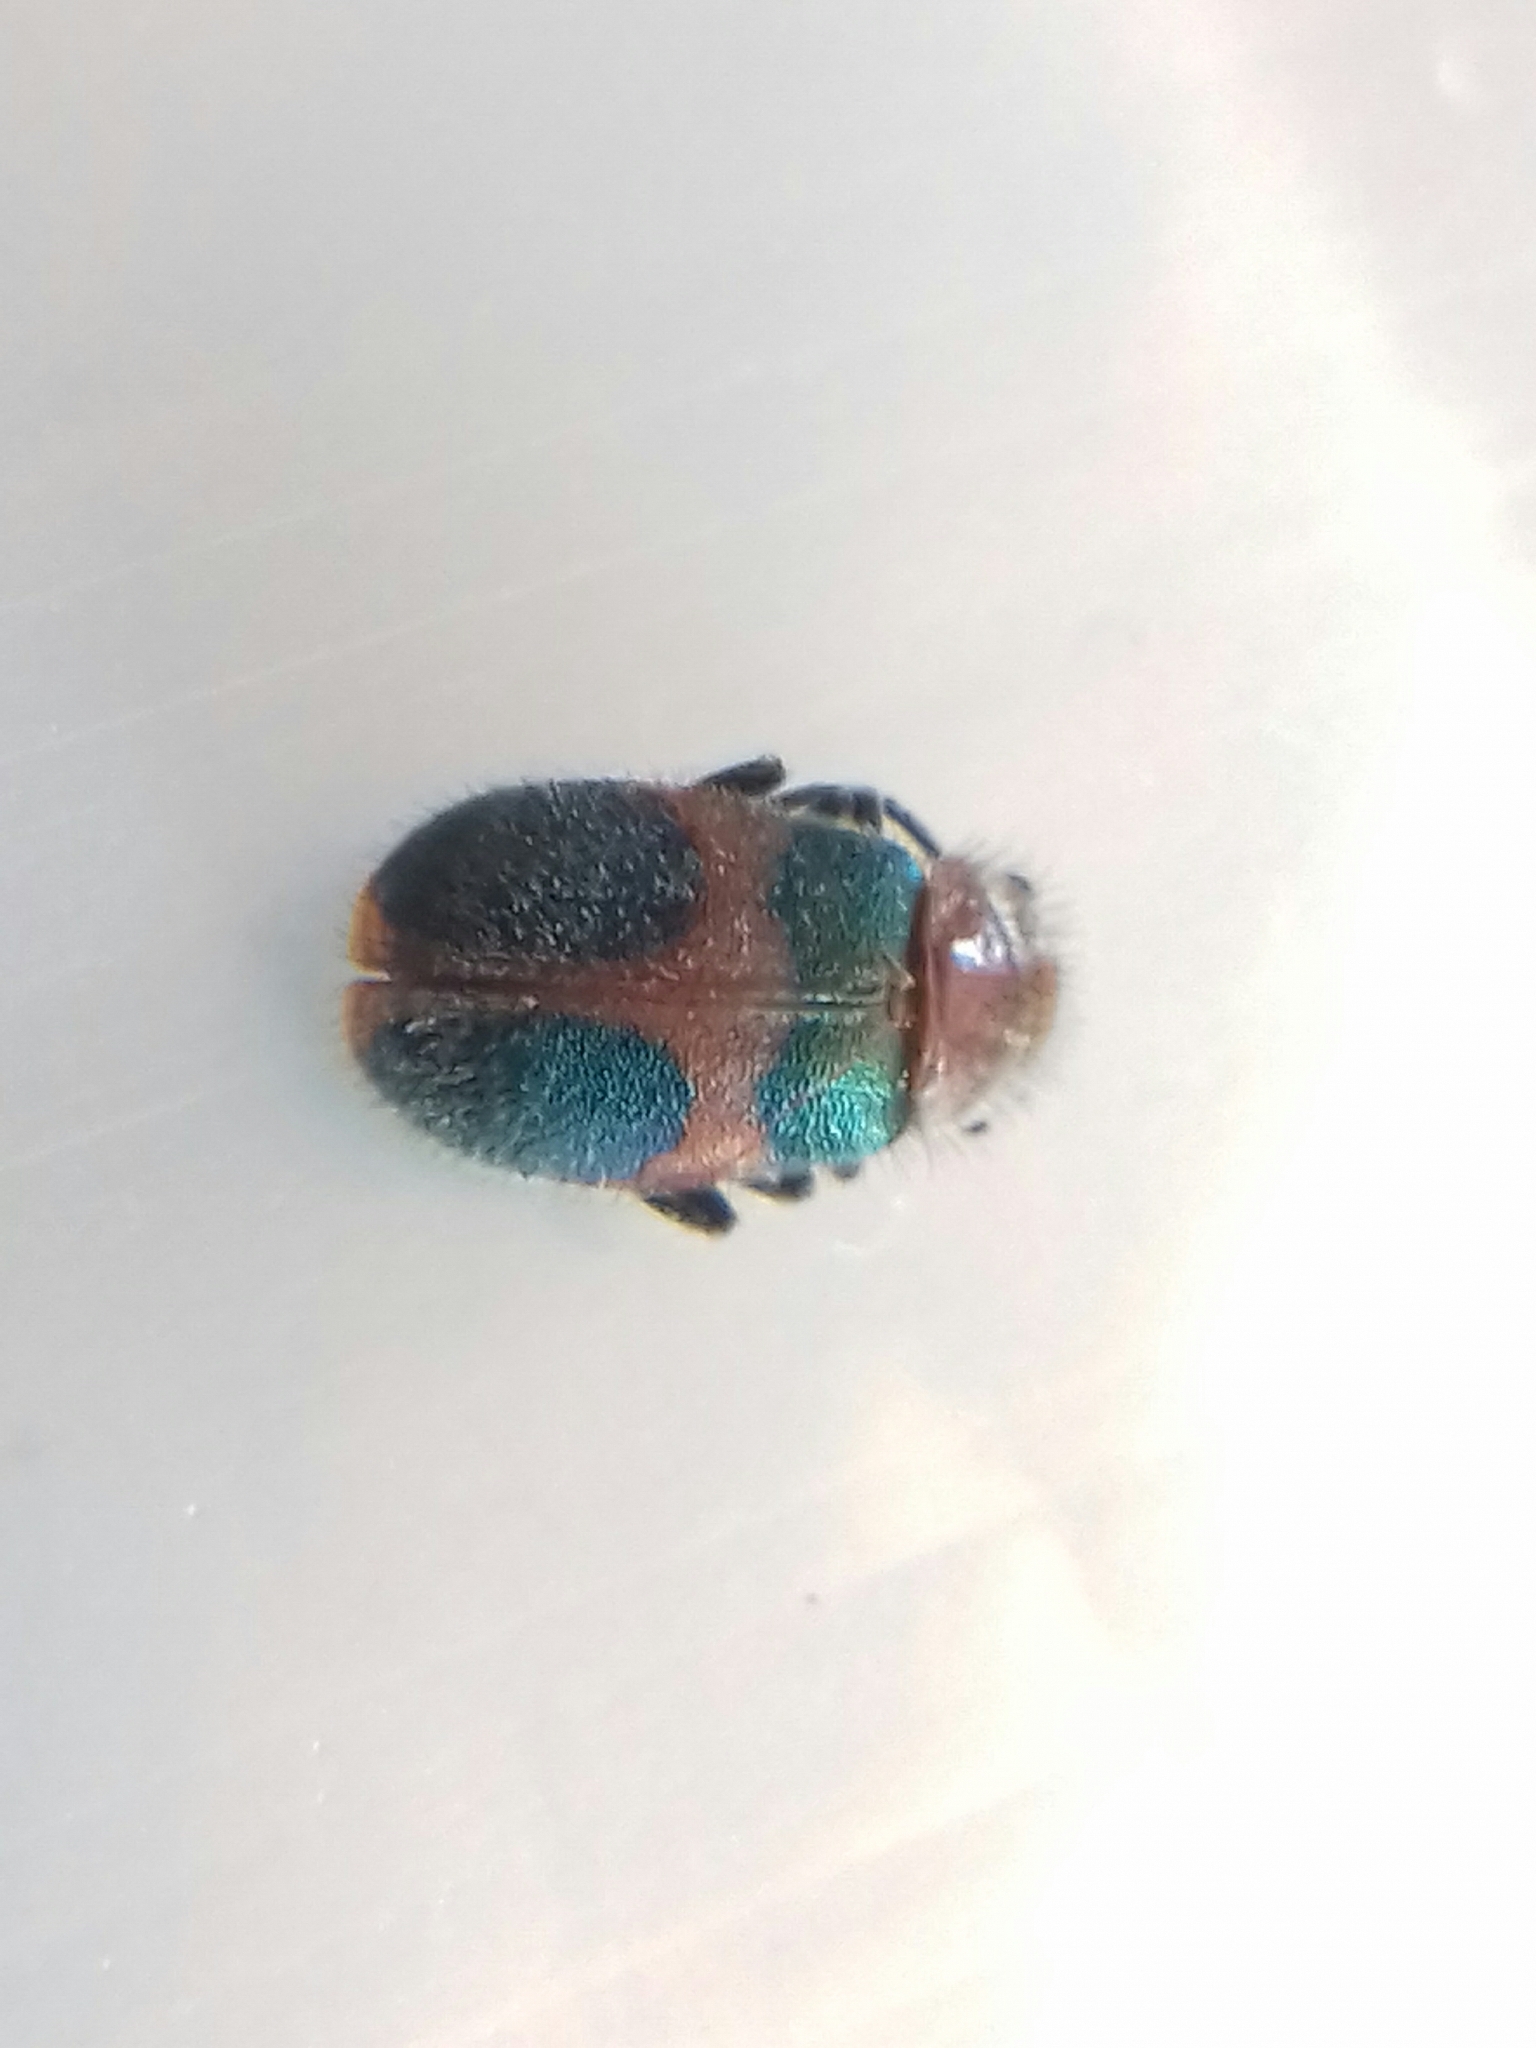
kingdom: Animalia
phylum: Arthropoda
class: Insecta
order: Coleoptera
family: Melyridae
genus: Collops
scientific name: Collops quadrimaculatus
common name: Four-spotted collops
